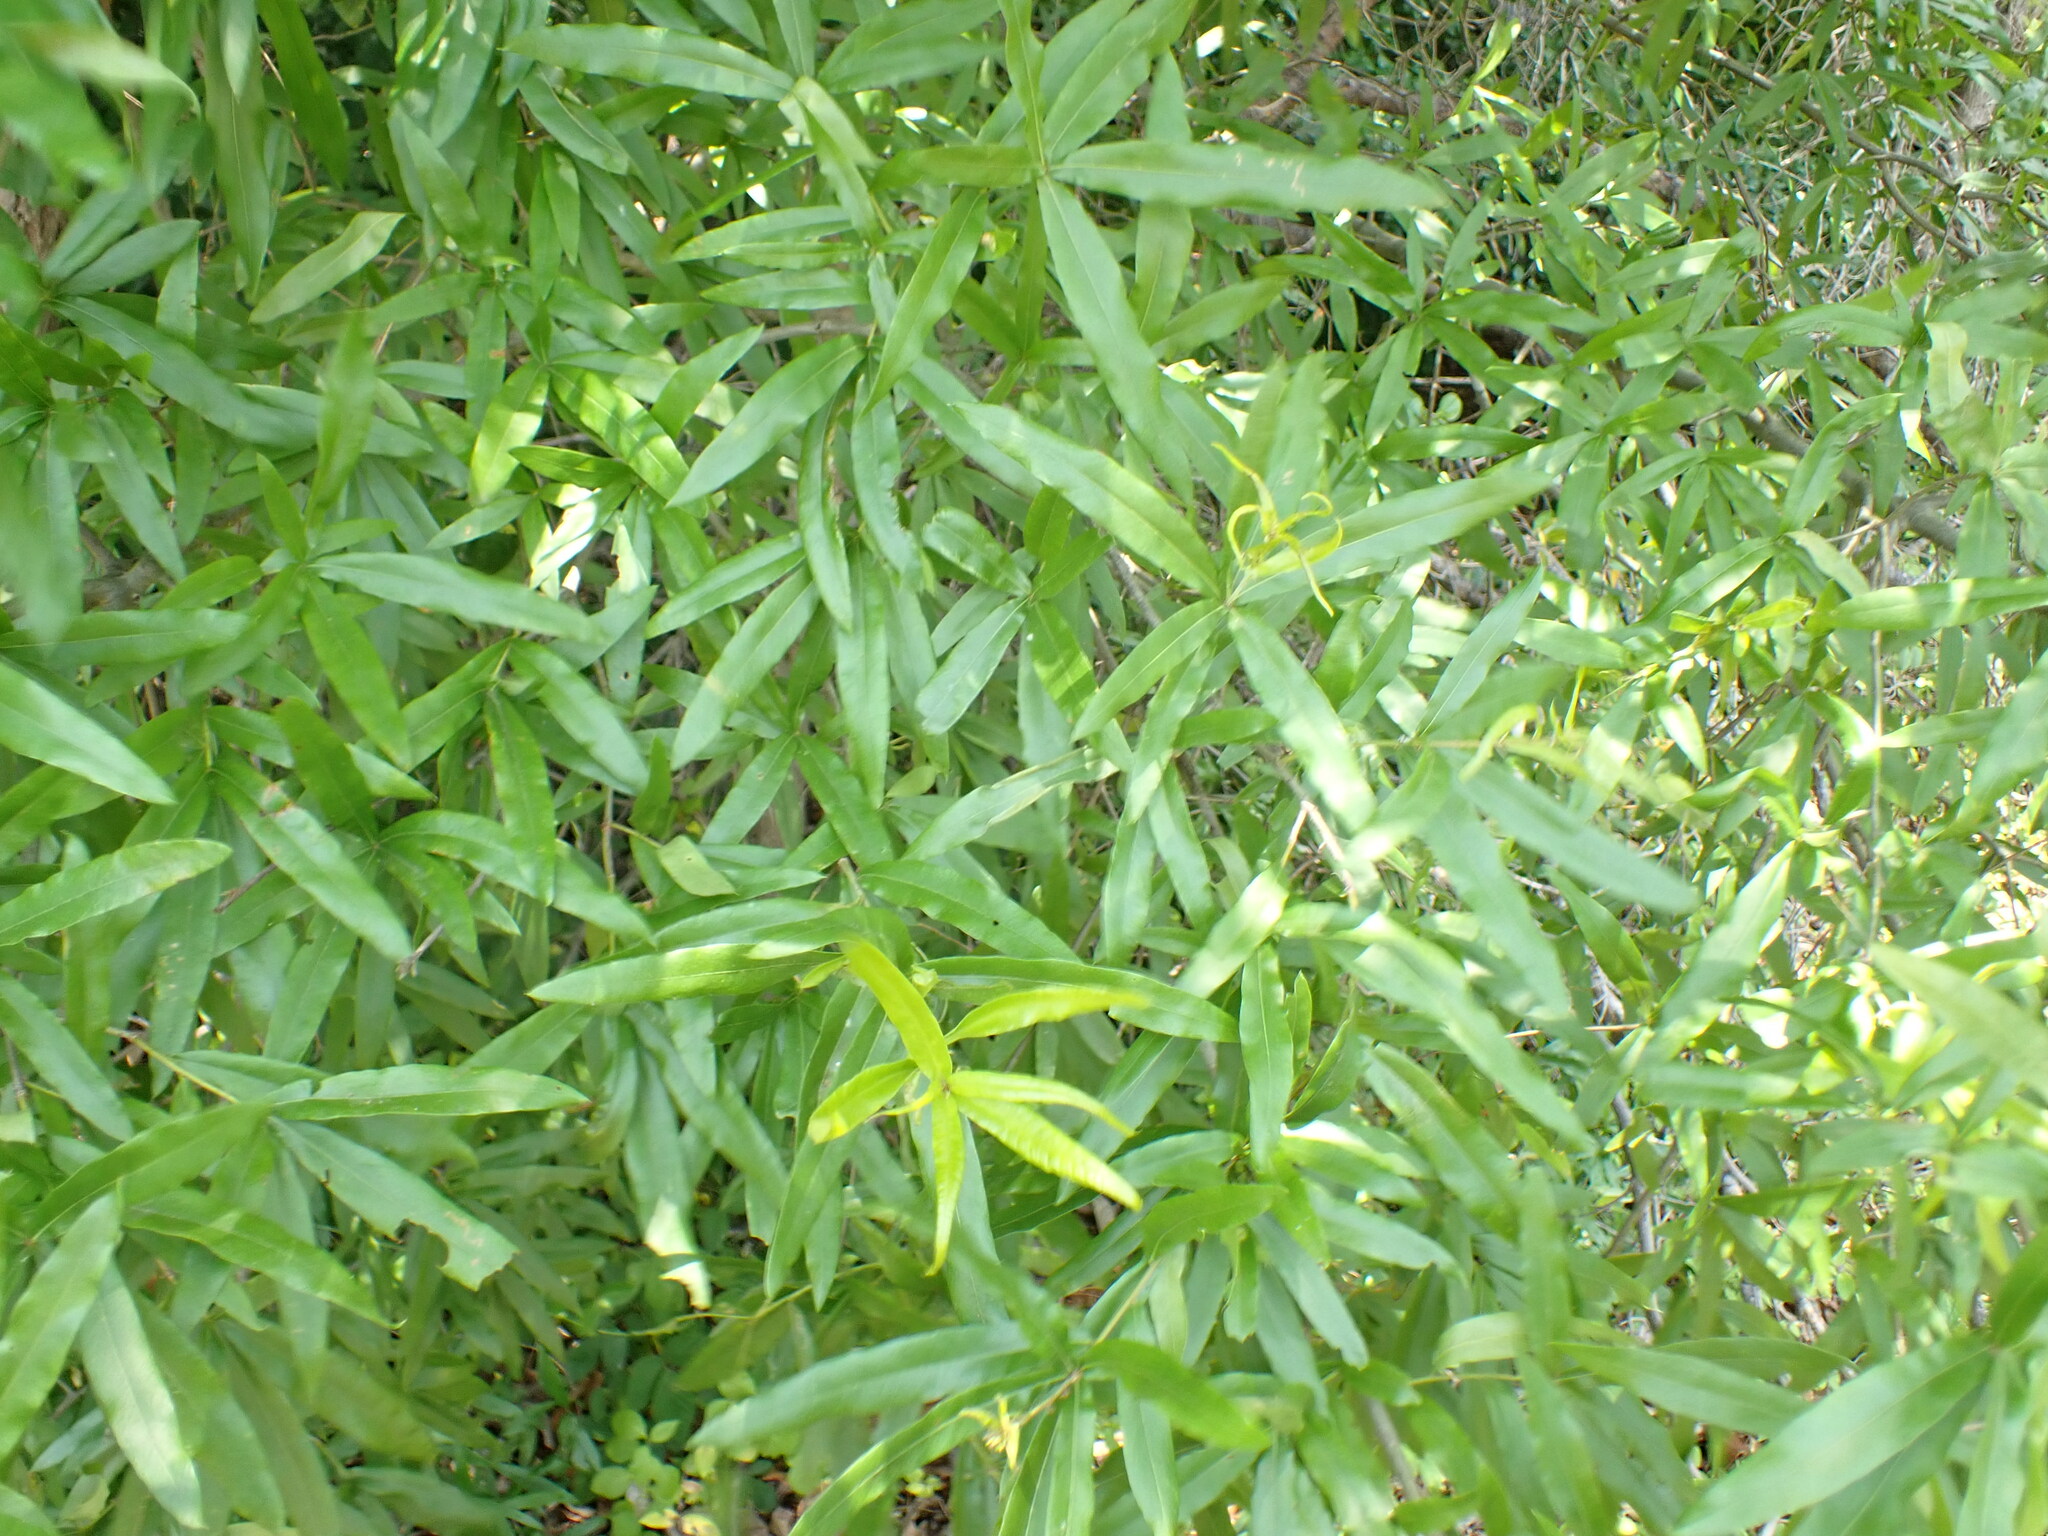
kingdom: Plantae
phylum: Tracheophyta
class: Magnoliopsida
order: Fagales
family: Fagaceae
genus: Quercus
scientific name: Quercus phellos
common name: Willow oak
